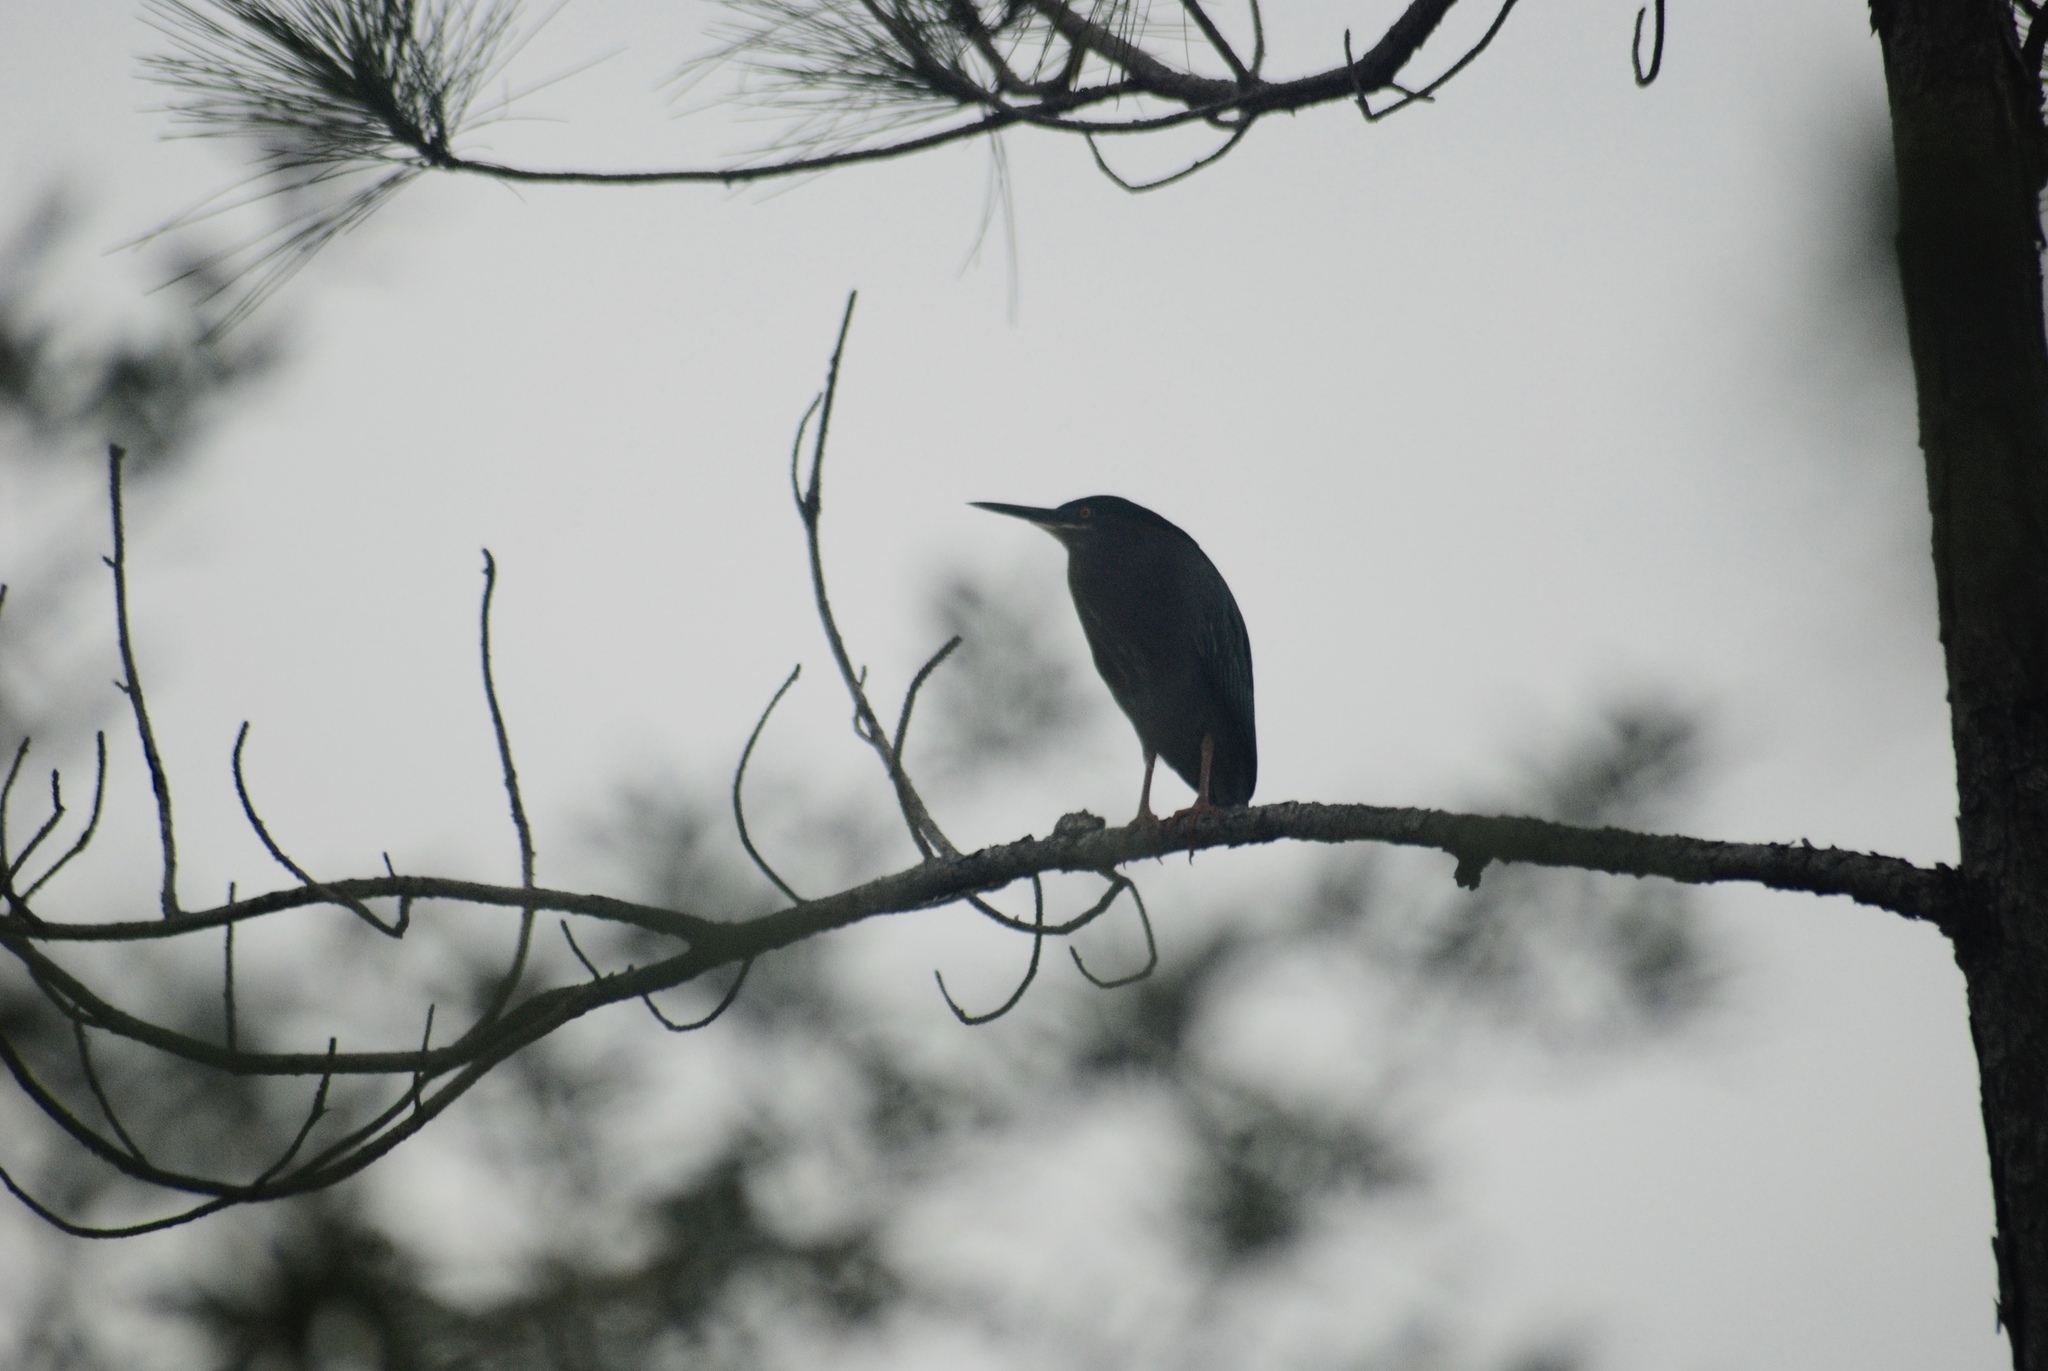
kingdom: Animalia
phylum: Chordata
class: Aves
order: Pelecaniformes
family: Ardeidae
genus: Butorides
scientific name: Butorides virescens
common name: Green heron
